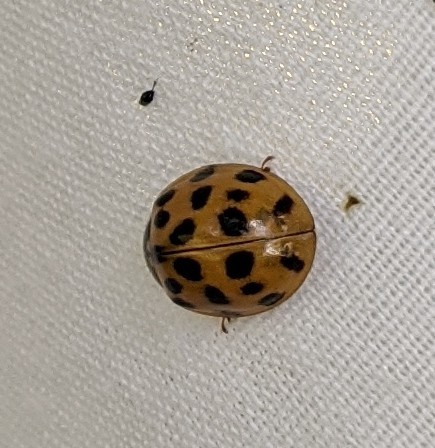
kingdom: Animalia
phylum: Arthropoda
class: Insecta
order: Coleoptera
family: Coccinellidae
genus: Harmonia
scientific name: Harmonia axyridis
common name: Harlequin ladybird
